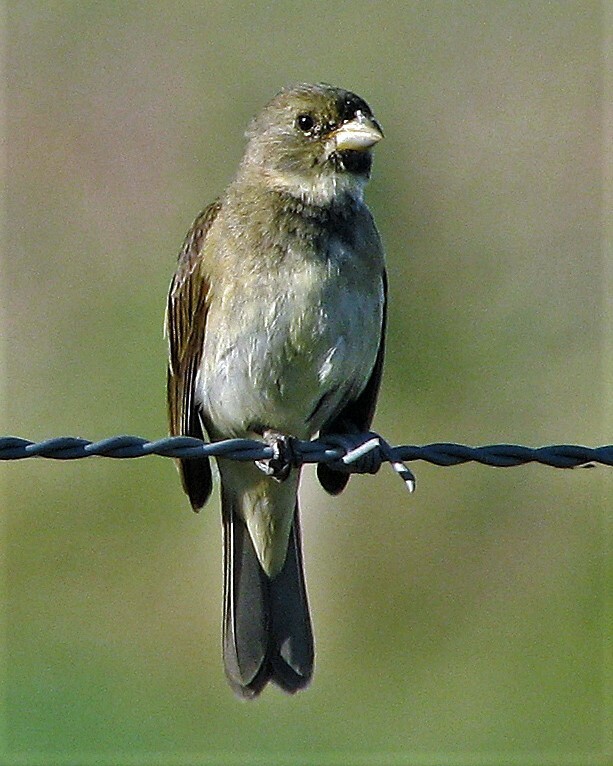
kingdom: Animalia
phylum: Chordata
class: Aves
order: Passeriformes
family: Thraupidae
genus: Sporophila
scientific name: Sporophila caerulescens
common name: Double-collared seedeater
